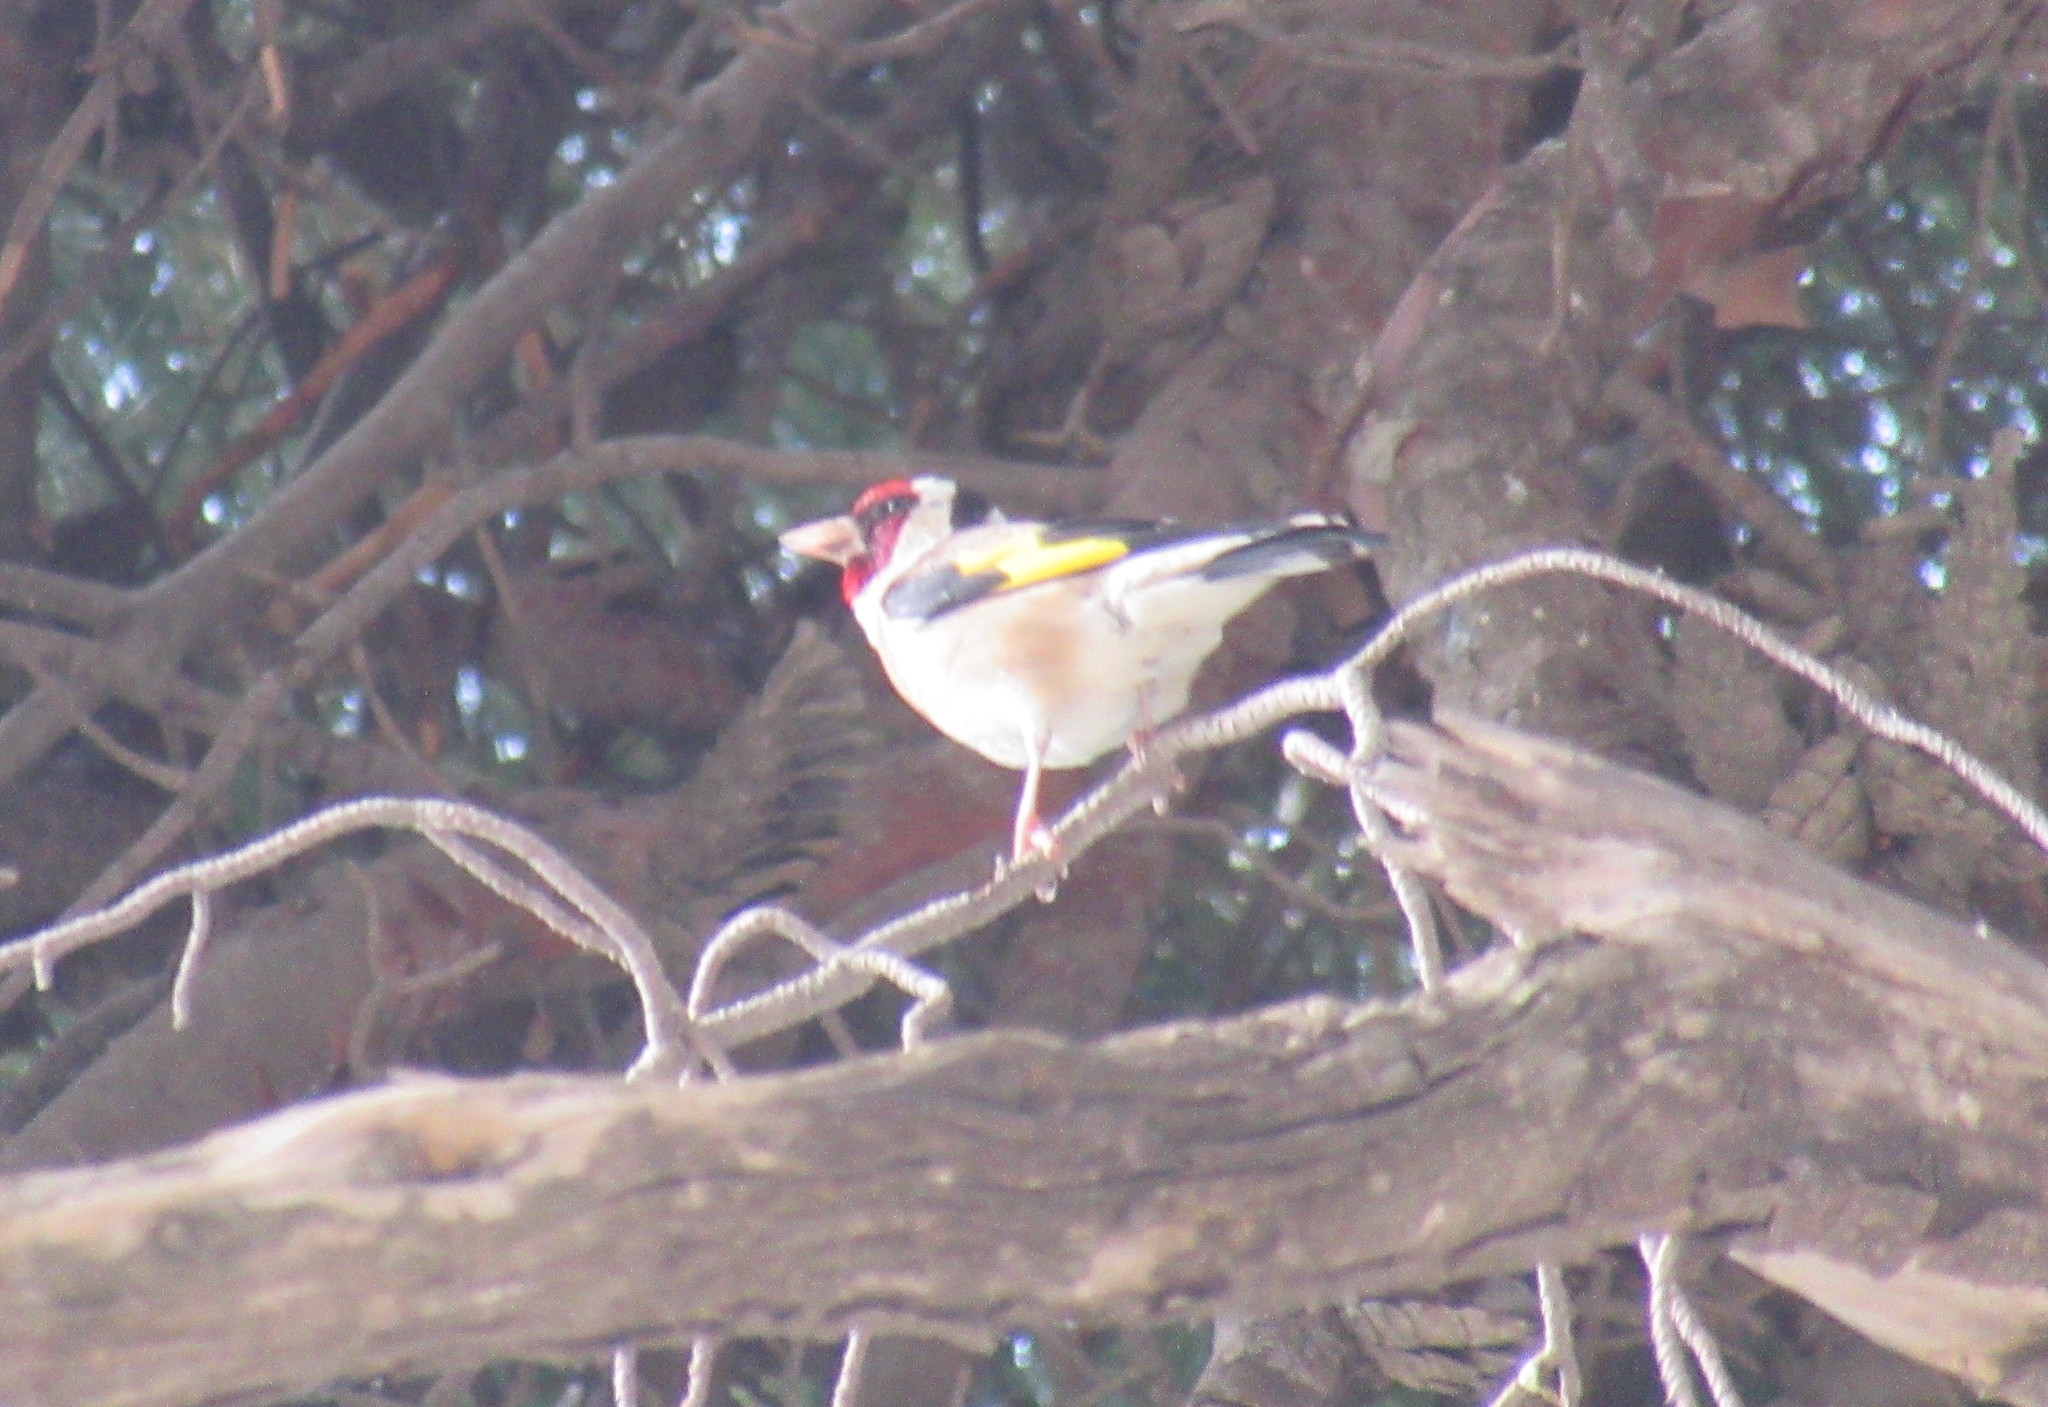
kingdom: Animalia
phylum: Chordata
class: Aves
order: Passeriformes
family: Fringillidae
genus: Carduelis
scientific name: Carduelis carduelis
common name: European goldfinch
